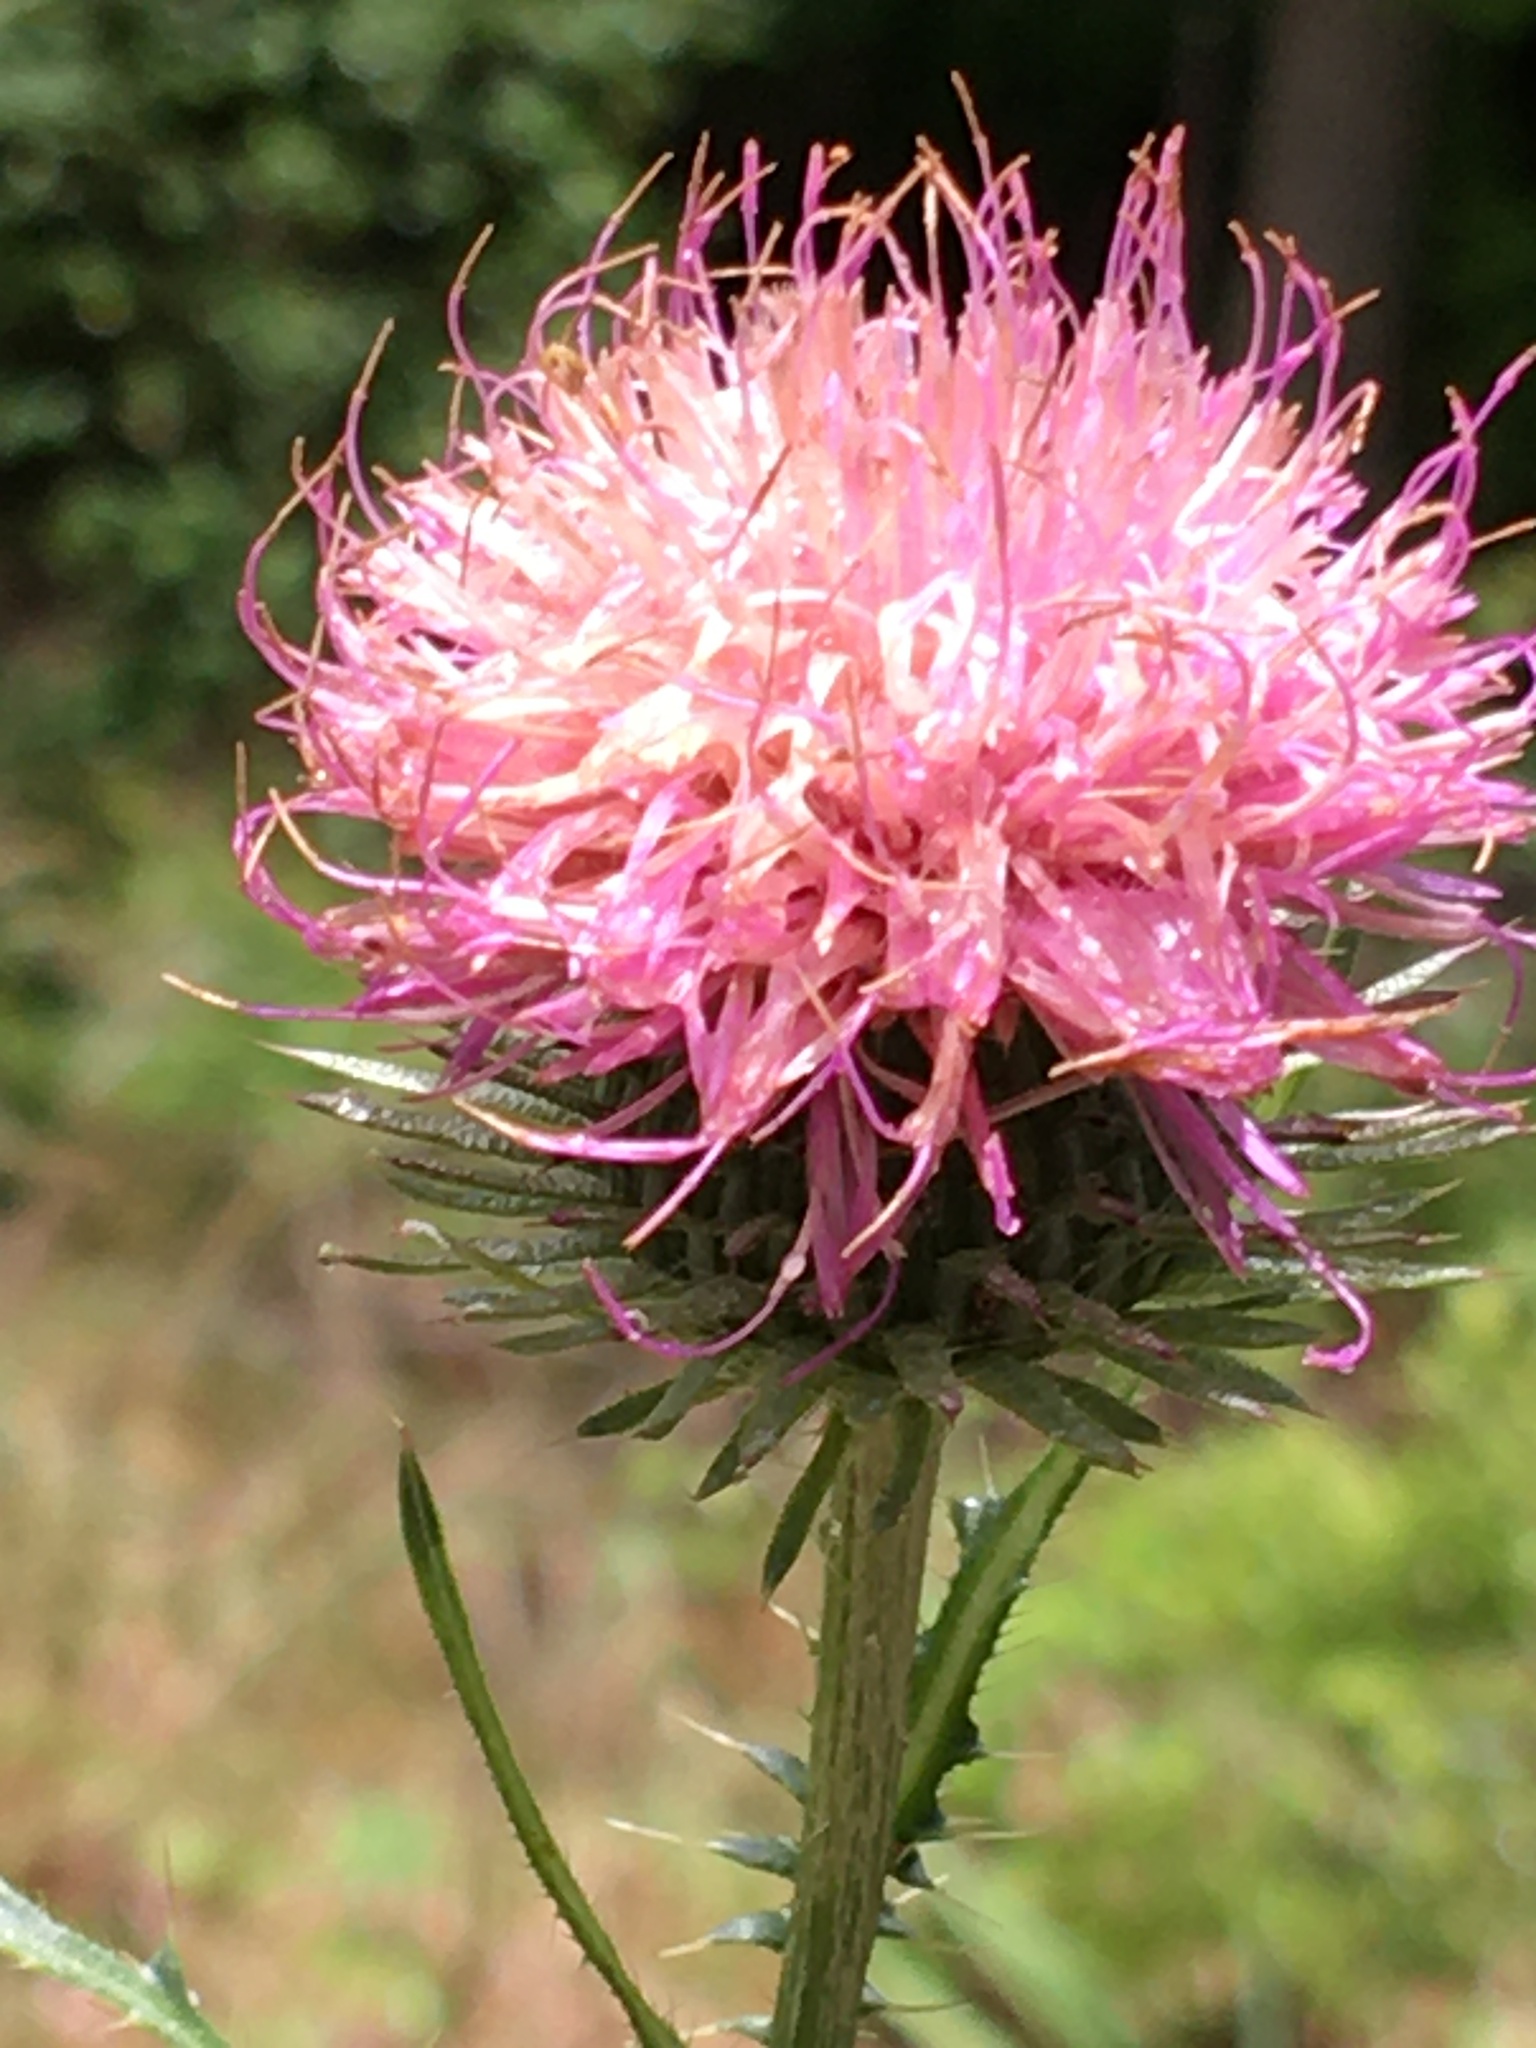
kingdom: Plantae
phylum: Tracheophyta
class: Magnoliopsida
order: Asterales
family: Asteraceae
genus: Carduus
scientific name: Carduus acanthoides
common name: Plumeless thistle
